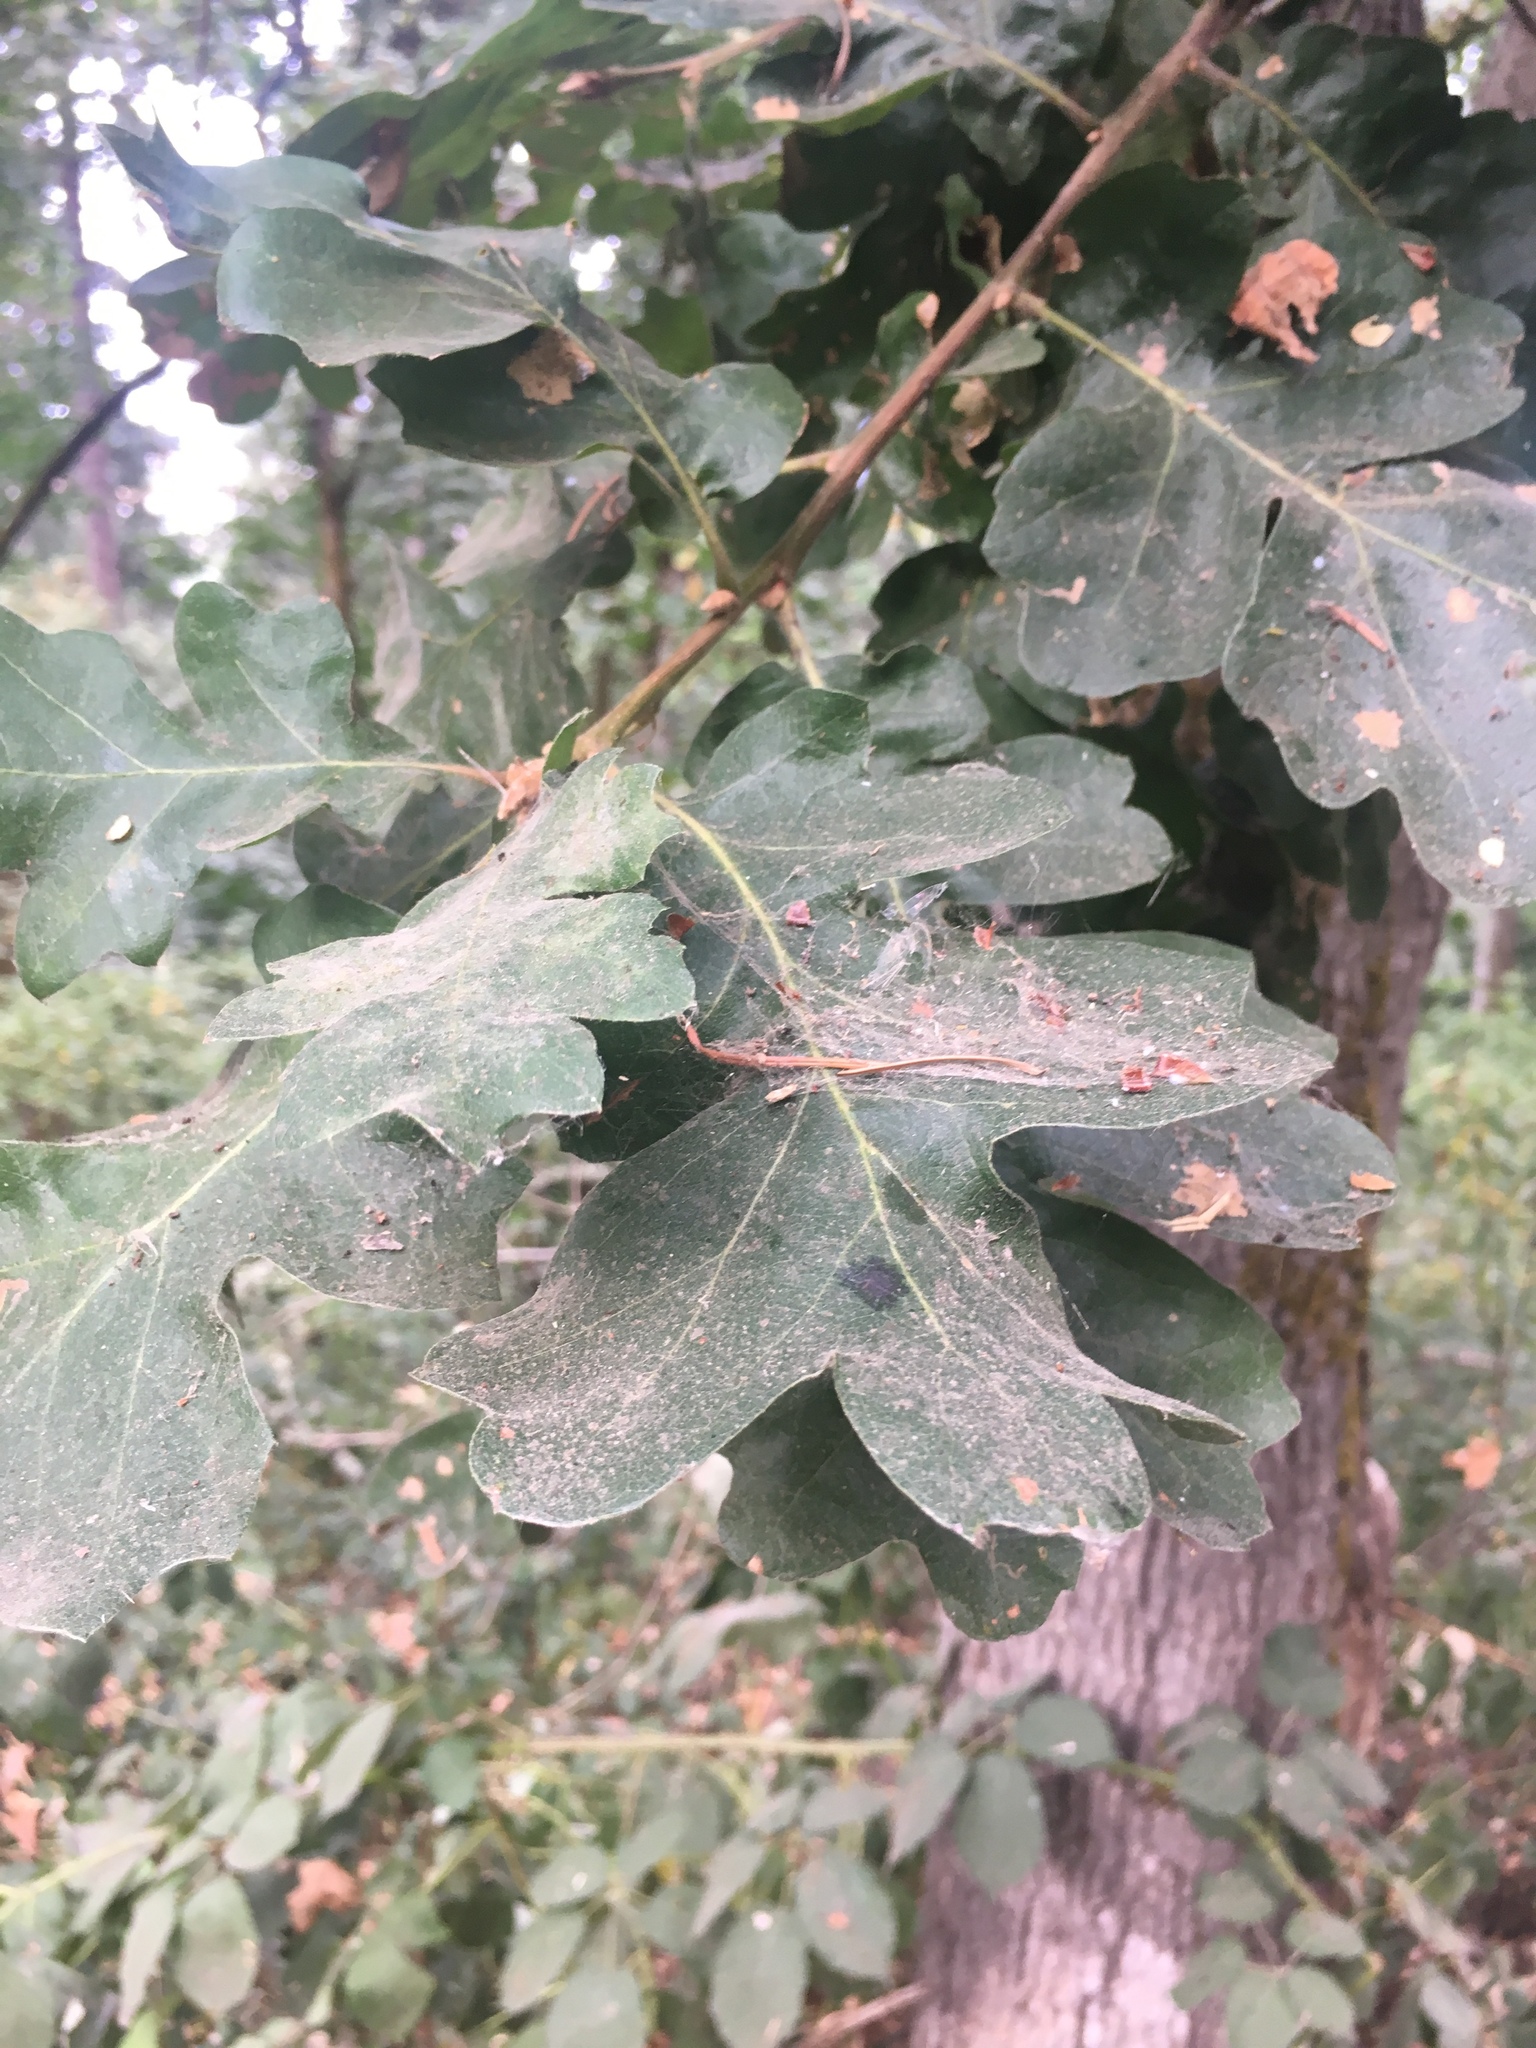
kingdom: Plantae
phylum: Tracheophyta
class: Magnoliopsida
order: Fagales
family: Fagaceae
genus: Quercus
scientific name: Quercus garryana
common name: Garry oak
